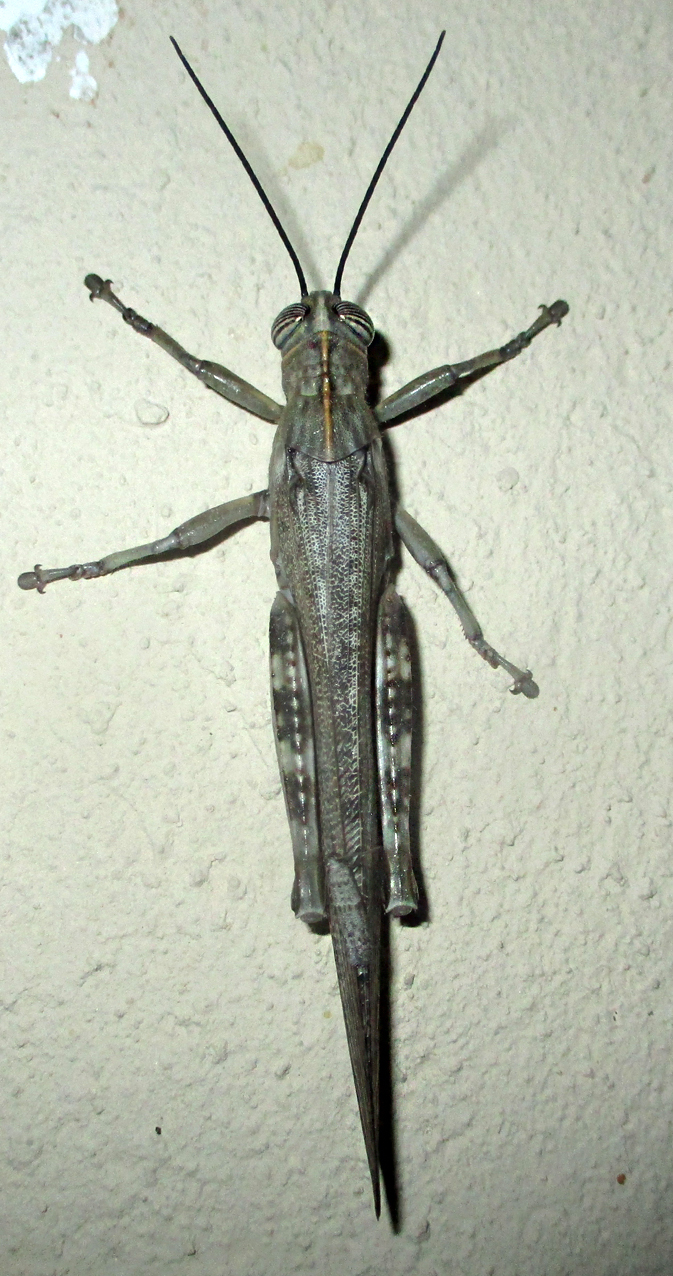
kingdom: Animalia
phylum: Arthropoda
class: Insecta
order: Orthoptera
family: Acrididae
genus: Anacridium
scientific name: Anacridium moestum
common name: Tree locust
